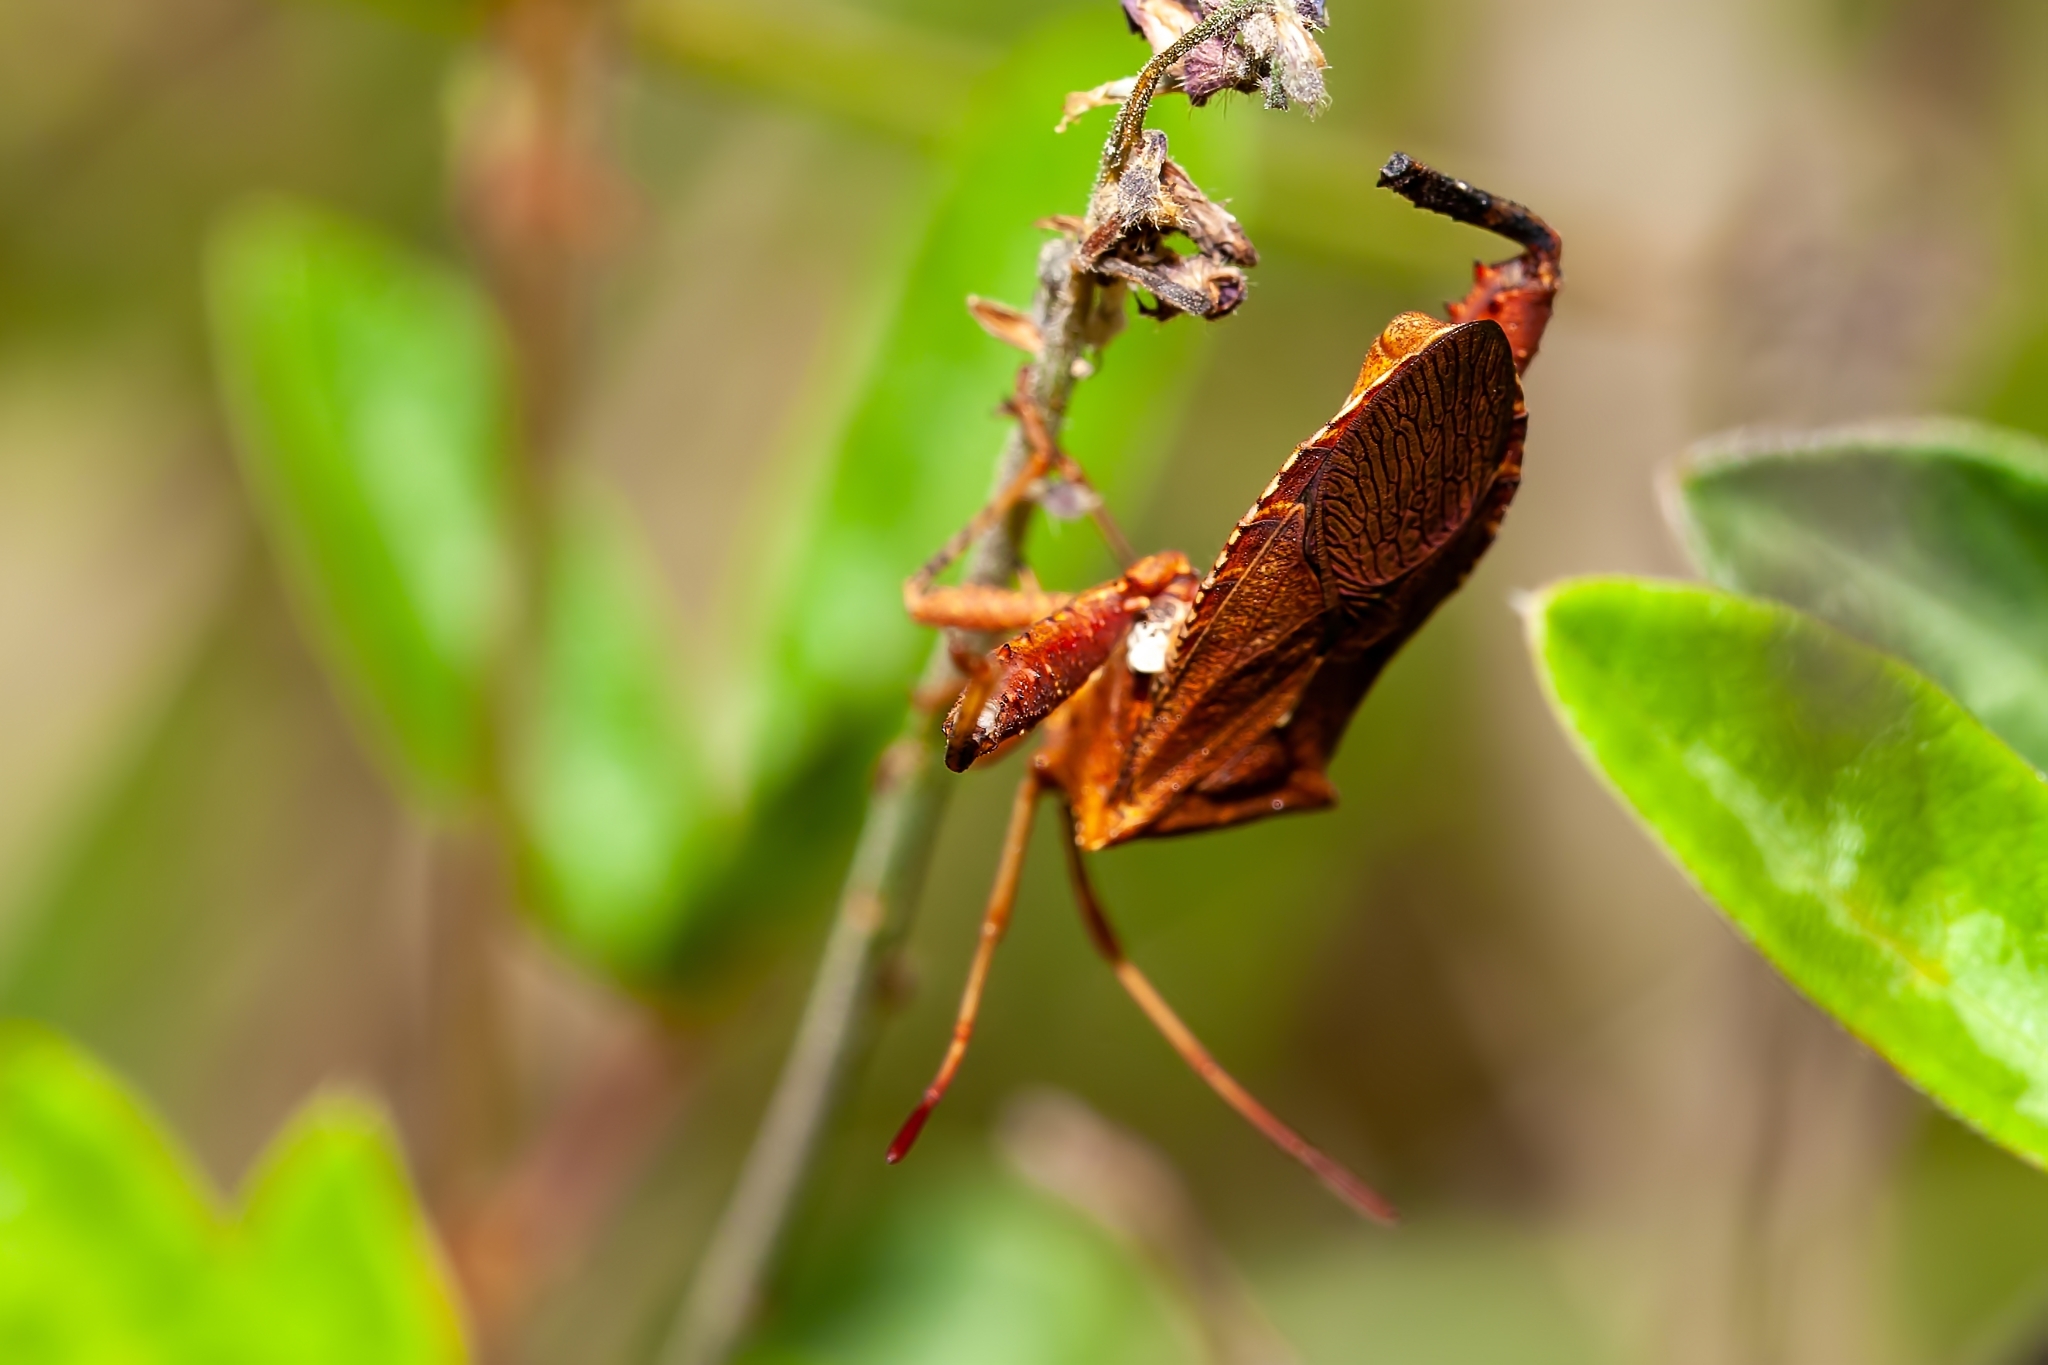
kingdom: Animalia
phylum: Arthropoda
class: Insecta
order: Hemiptera
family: Coreidae
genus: Euthochtha
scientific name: Euthochtha galeator
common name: Helmeted squash bug
